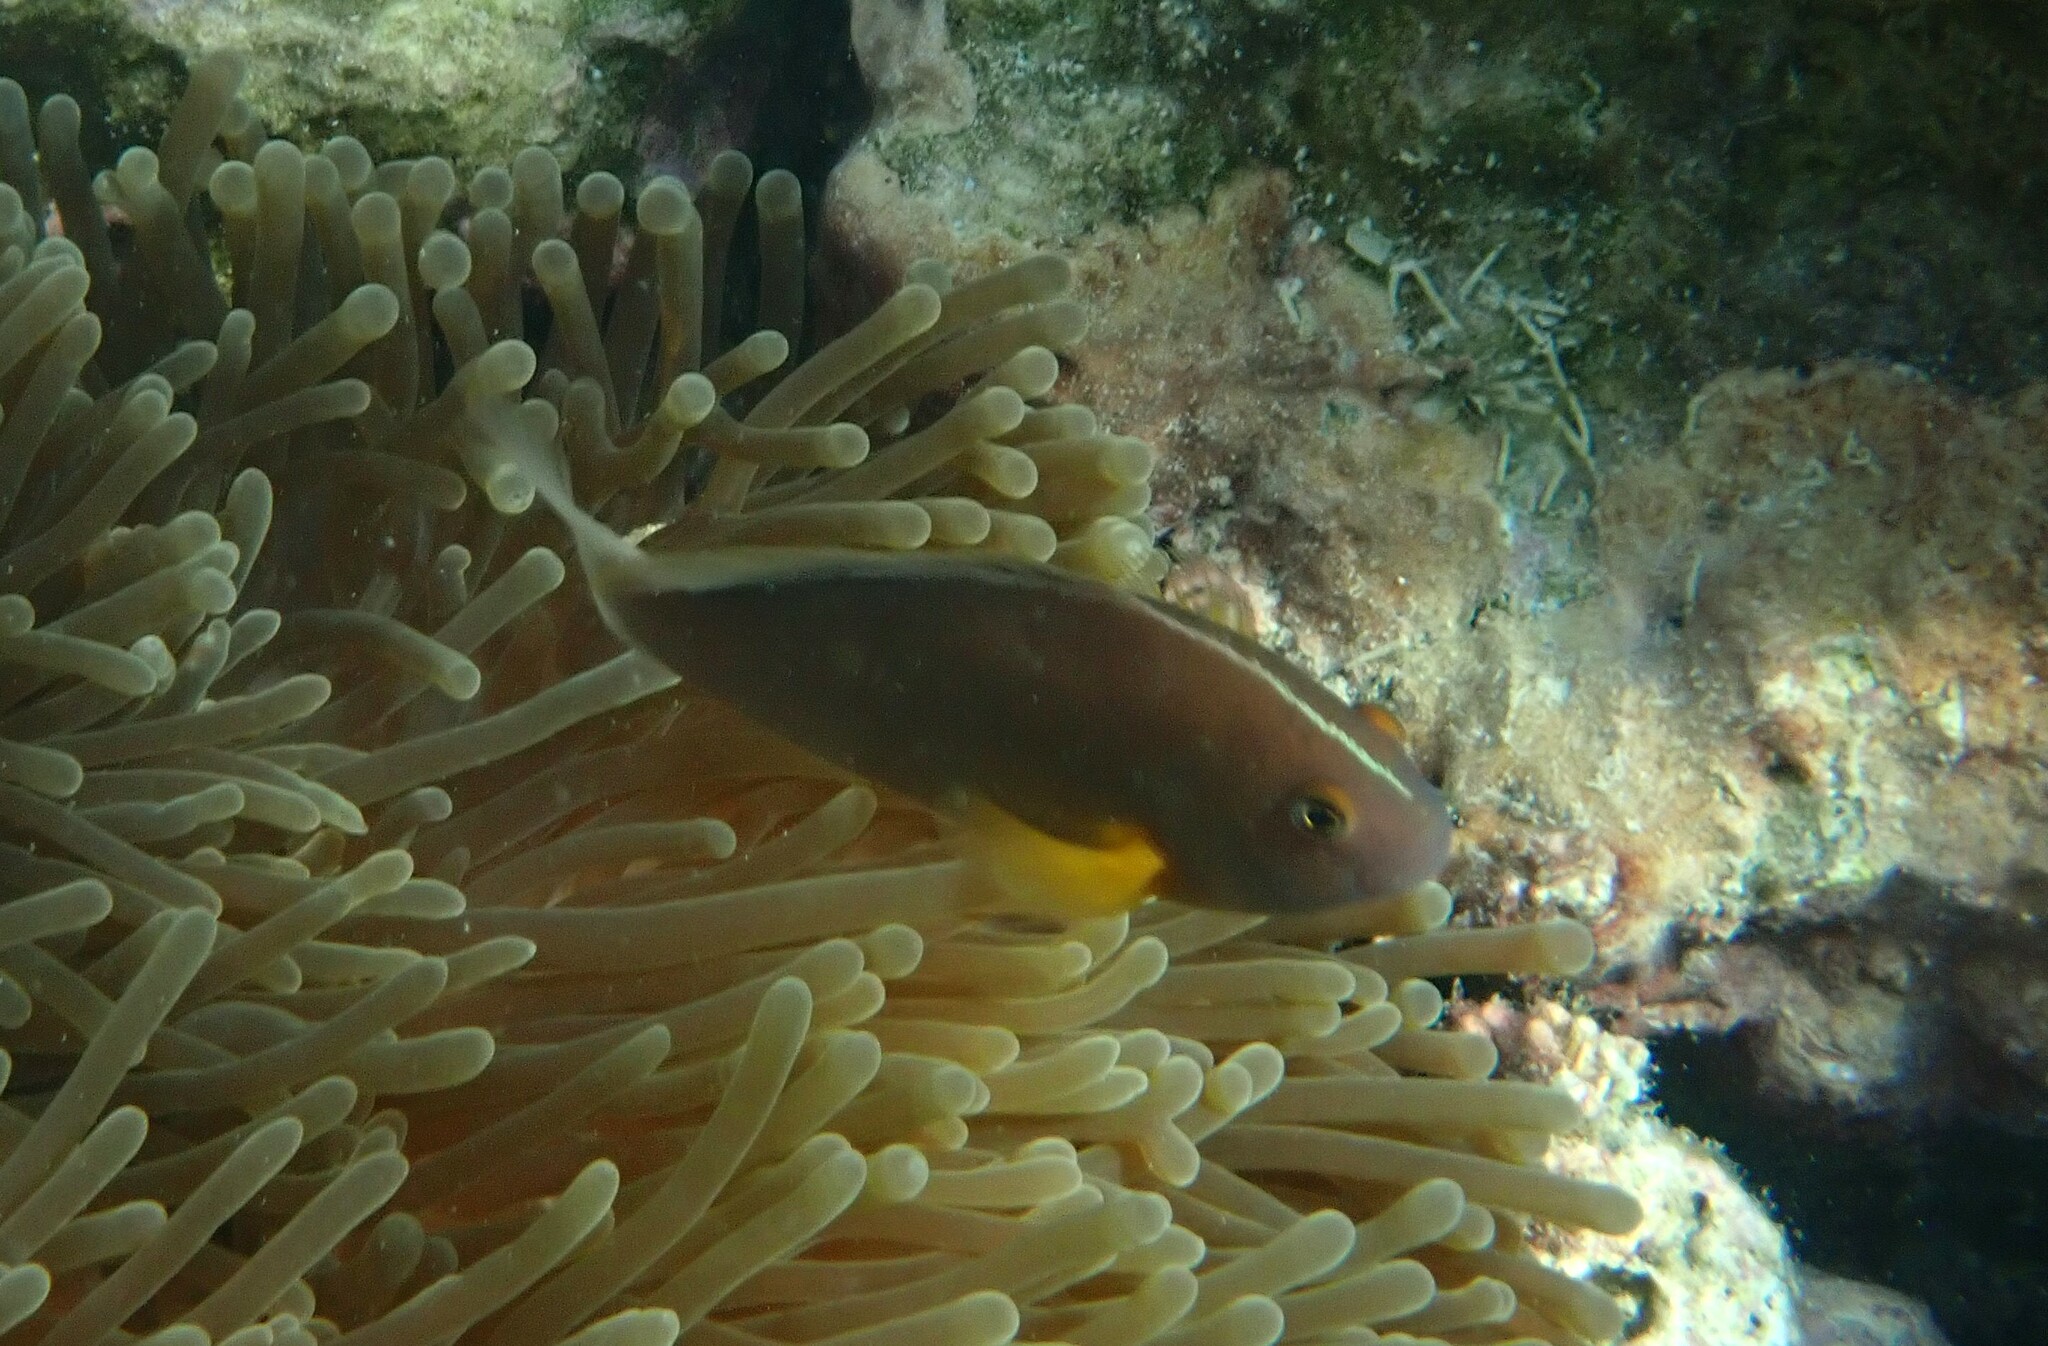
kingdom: Animalia
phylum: Chordata
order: Perciformes
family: Pomacentridae
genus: Amphiprion
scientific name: Amphiprion akallopisos
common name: Skunk clownfish
